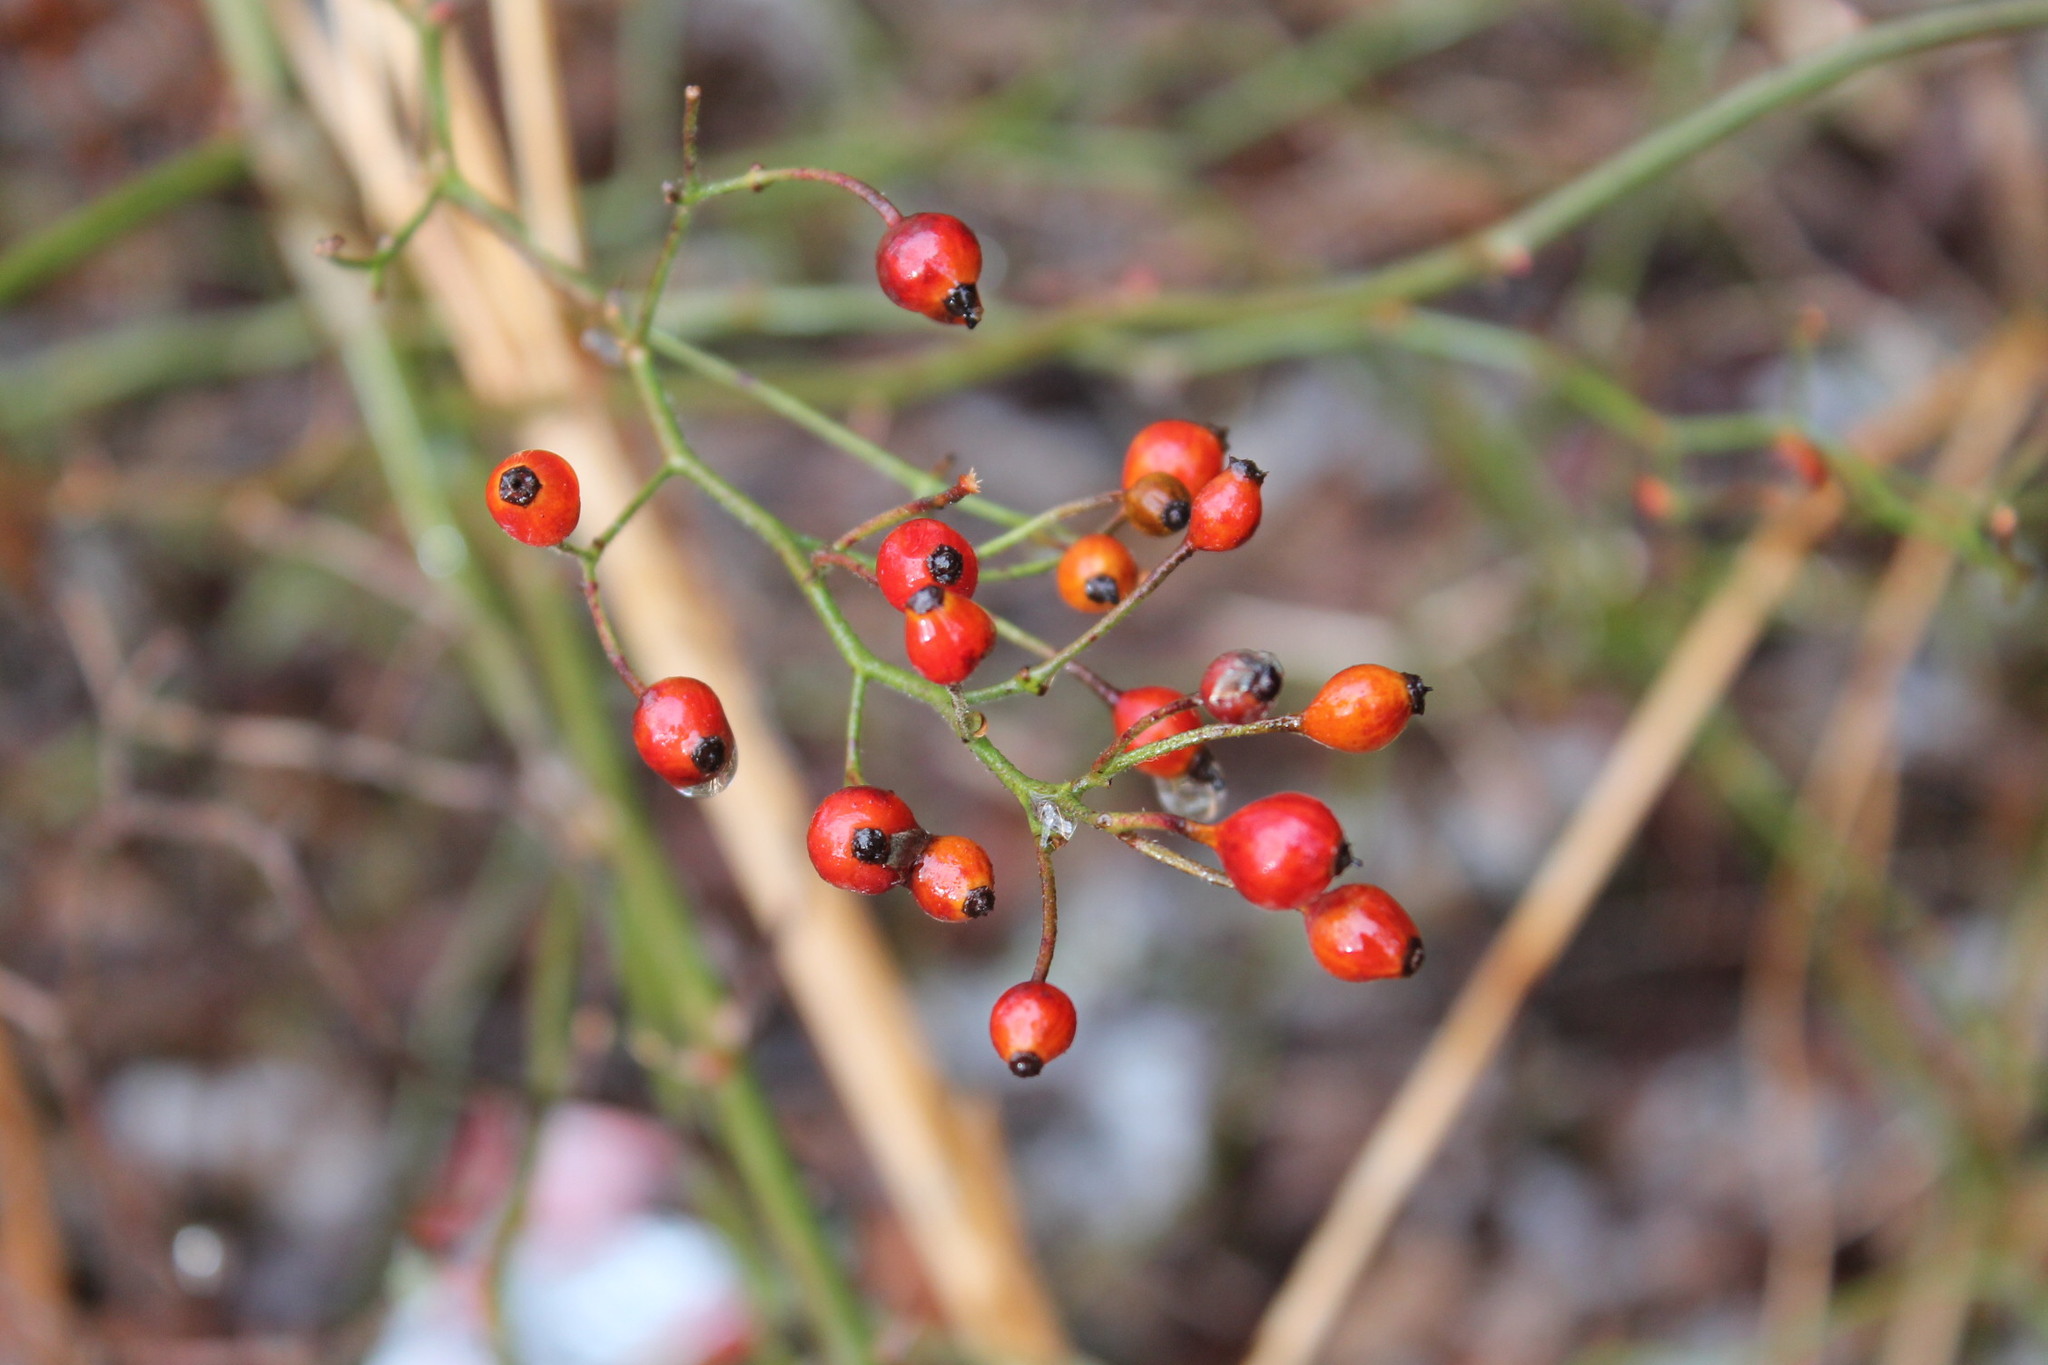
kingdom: Plantae
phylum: Tracheophyta
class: Magnoliopsida
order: Rosales
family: Rosaceae
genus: Rosa
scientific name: Rosa multiflora
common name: Multiflora rose
